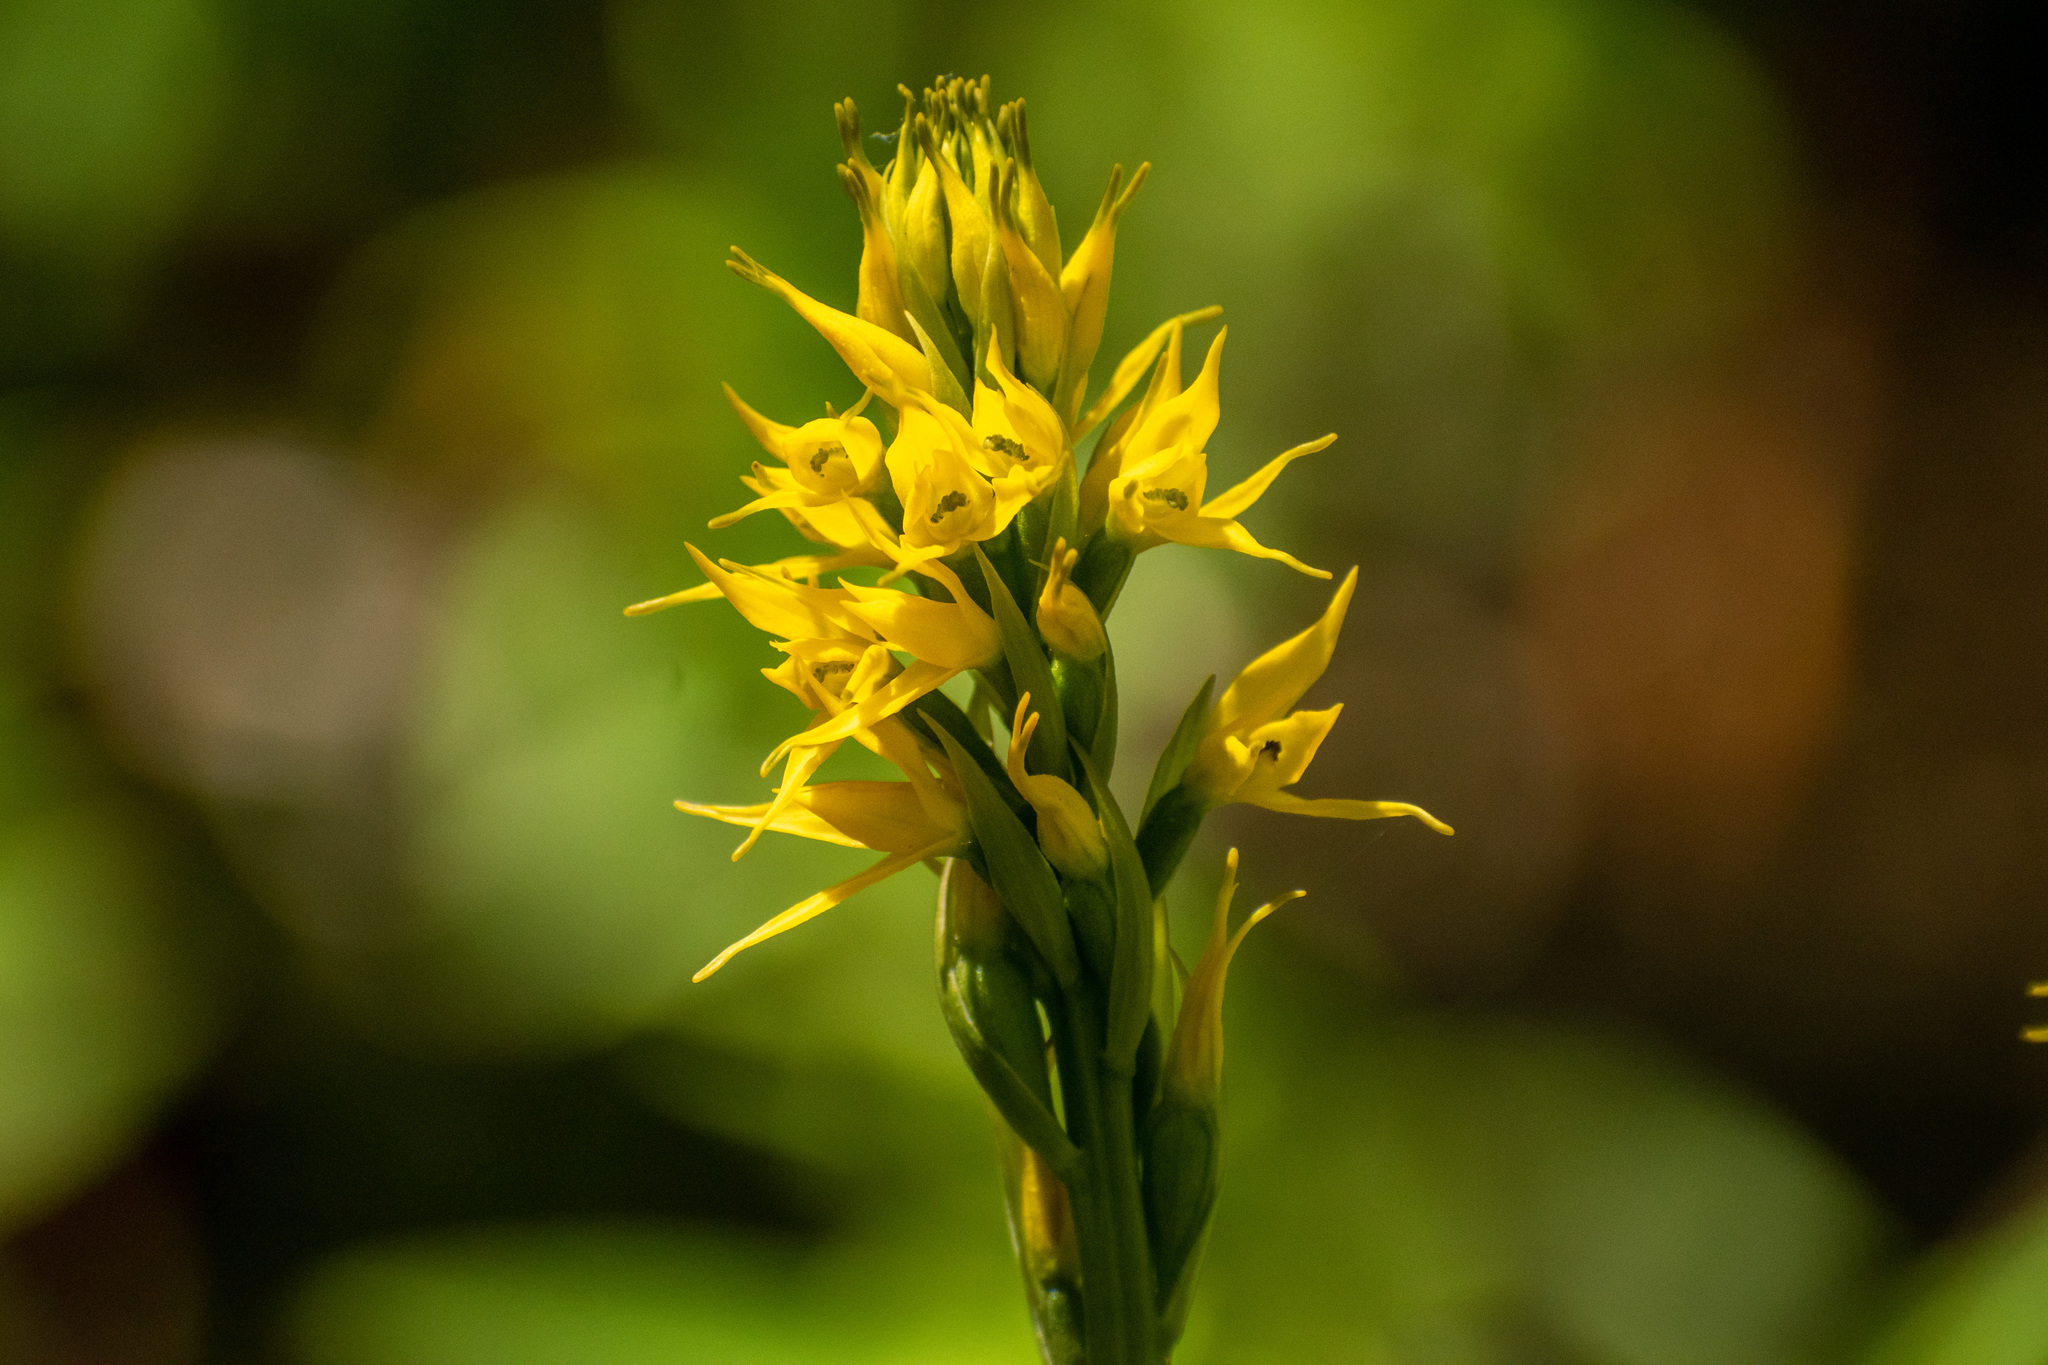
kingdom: Plantae
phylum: Tracheophyta
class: Liliopsida
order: Asparagales
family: Orchidaceae
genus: Gavilea
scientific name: Gavilea lutea
